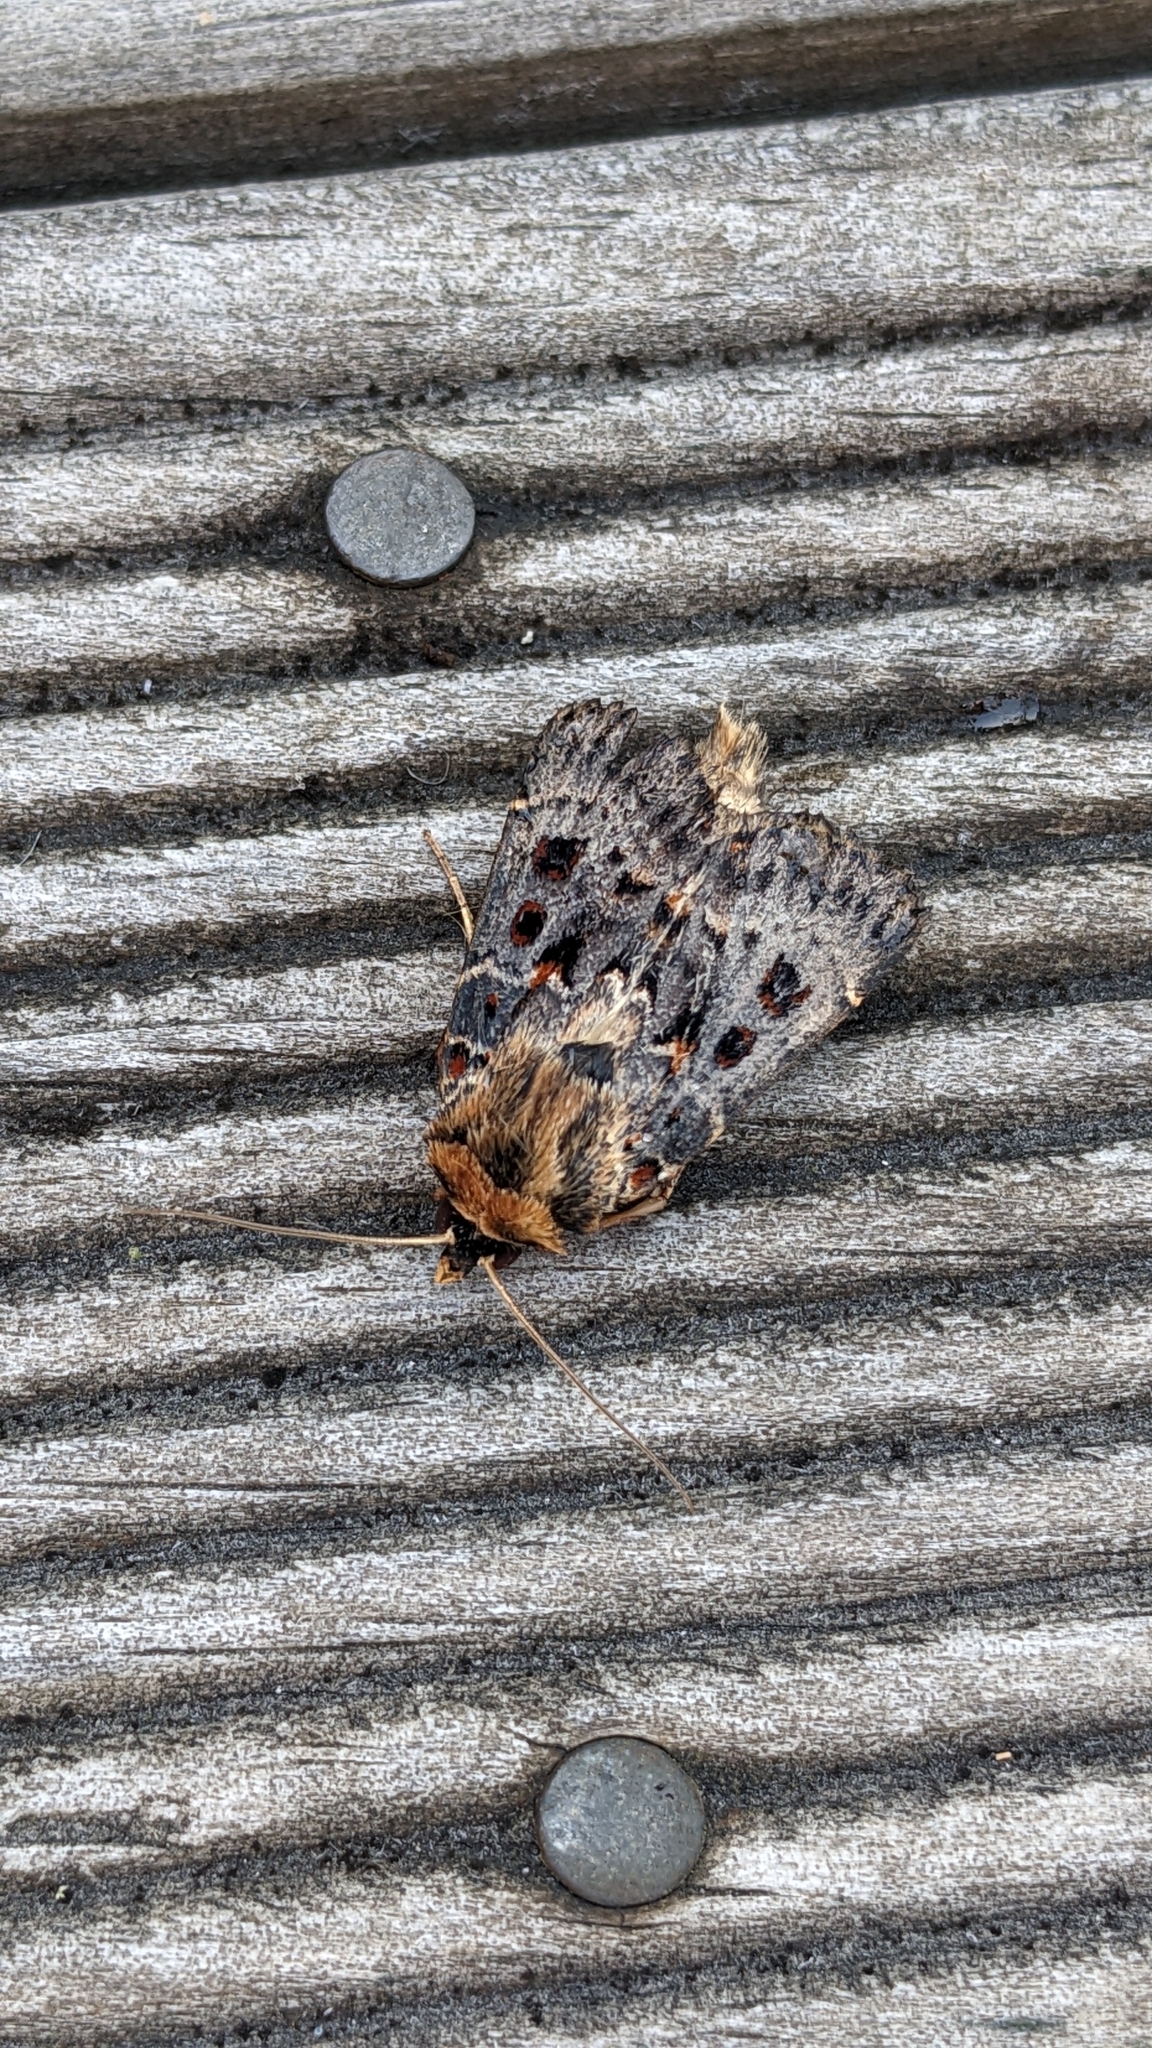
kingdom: Animalia
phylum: Arthropoda
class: Insecta
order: Lepidoptera
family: Noctuidae
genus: Proteuxoa
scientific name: Proteuxoa sanguinipuncta
